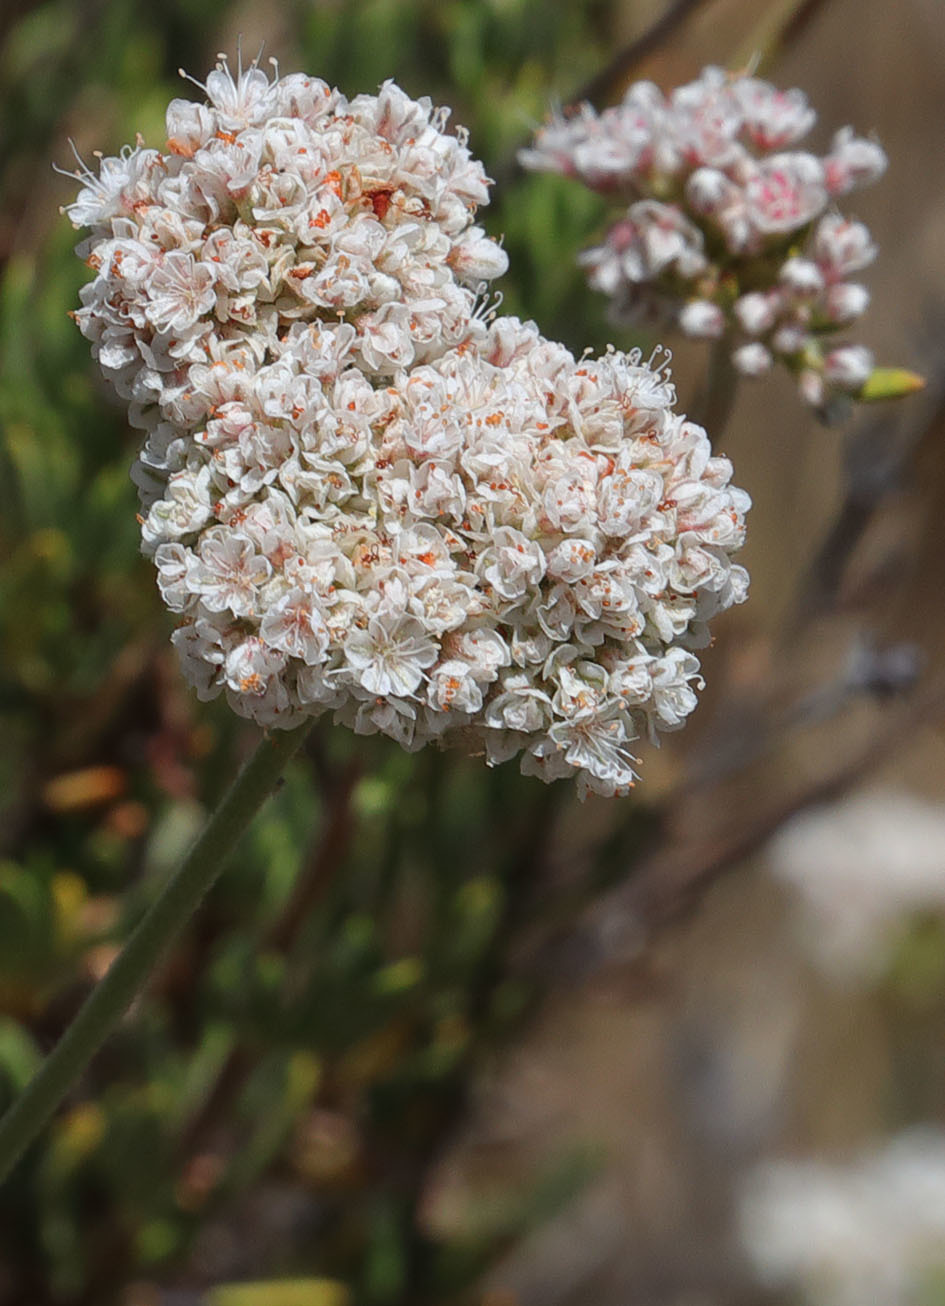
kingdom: Plantae
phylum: Tracheophyta
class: Magnoliopsida
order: Caryophyllales
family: Polygonaceae
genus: Eriogonum
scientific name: Eriogonum fasciculatum
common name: California wild buckwheat
